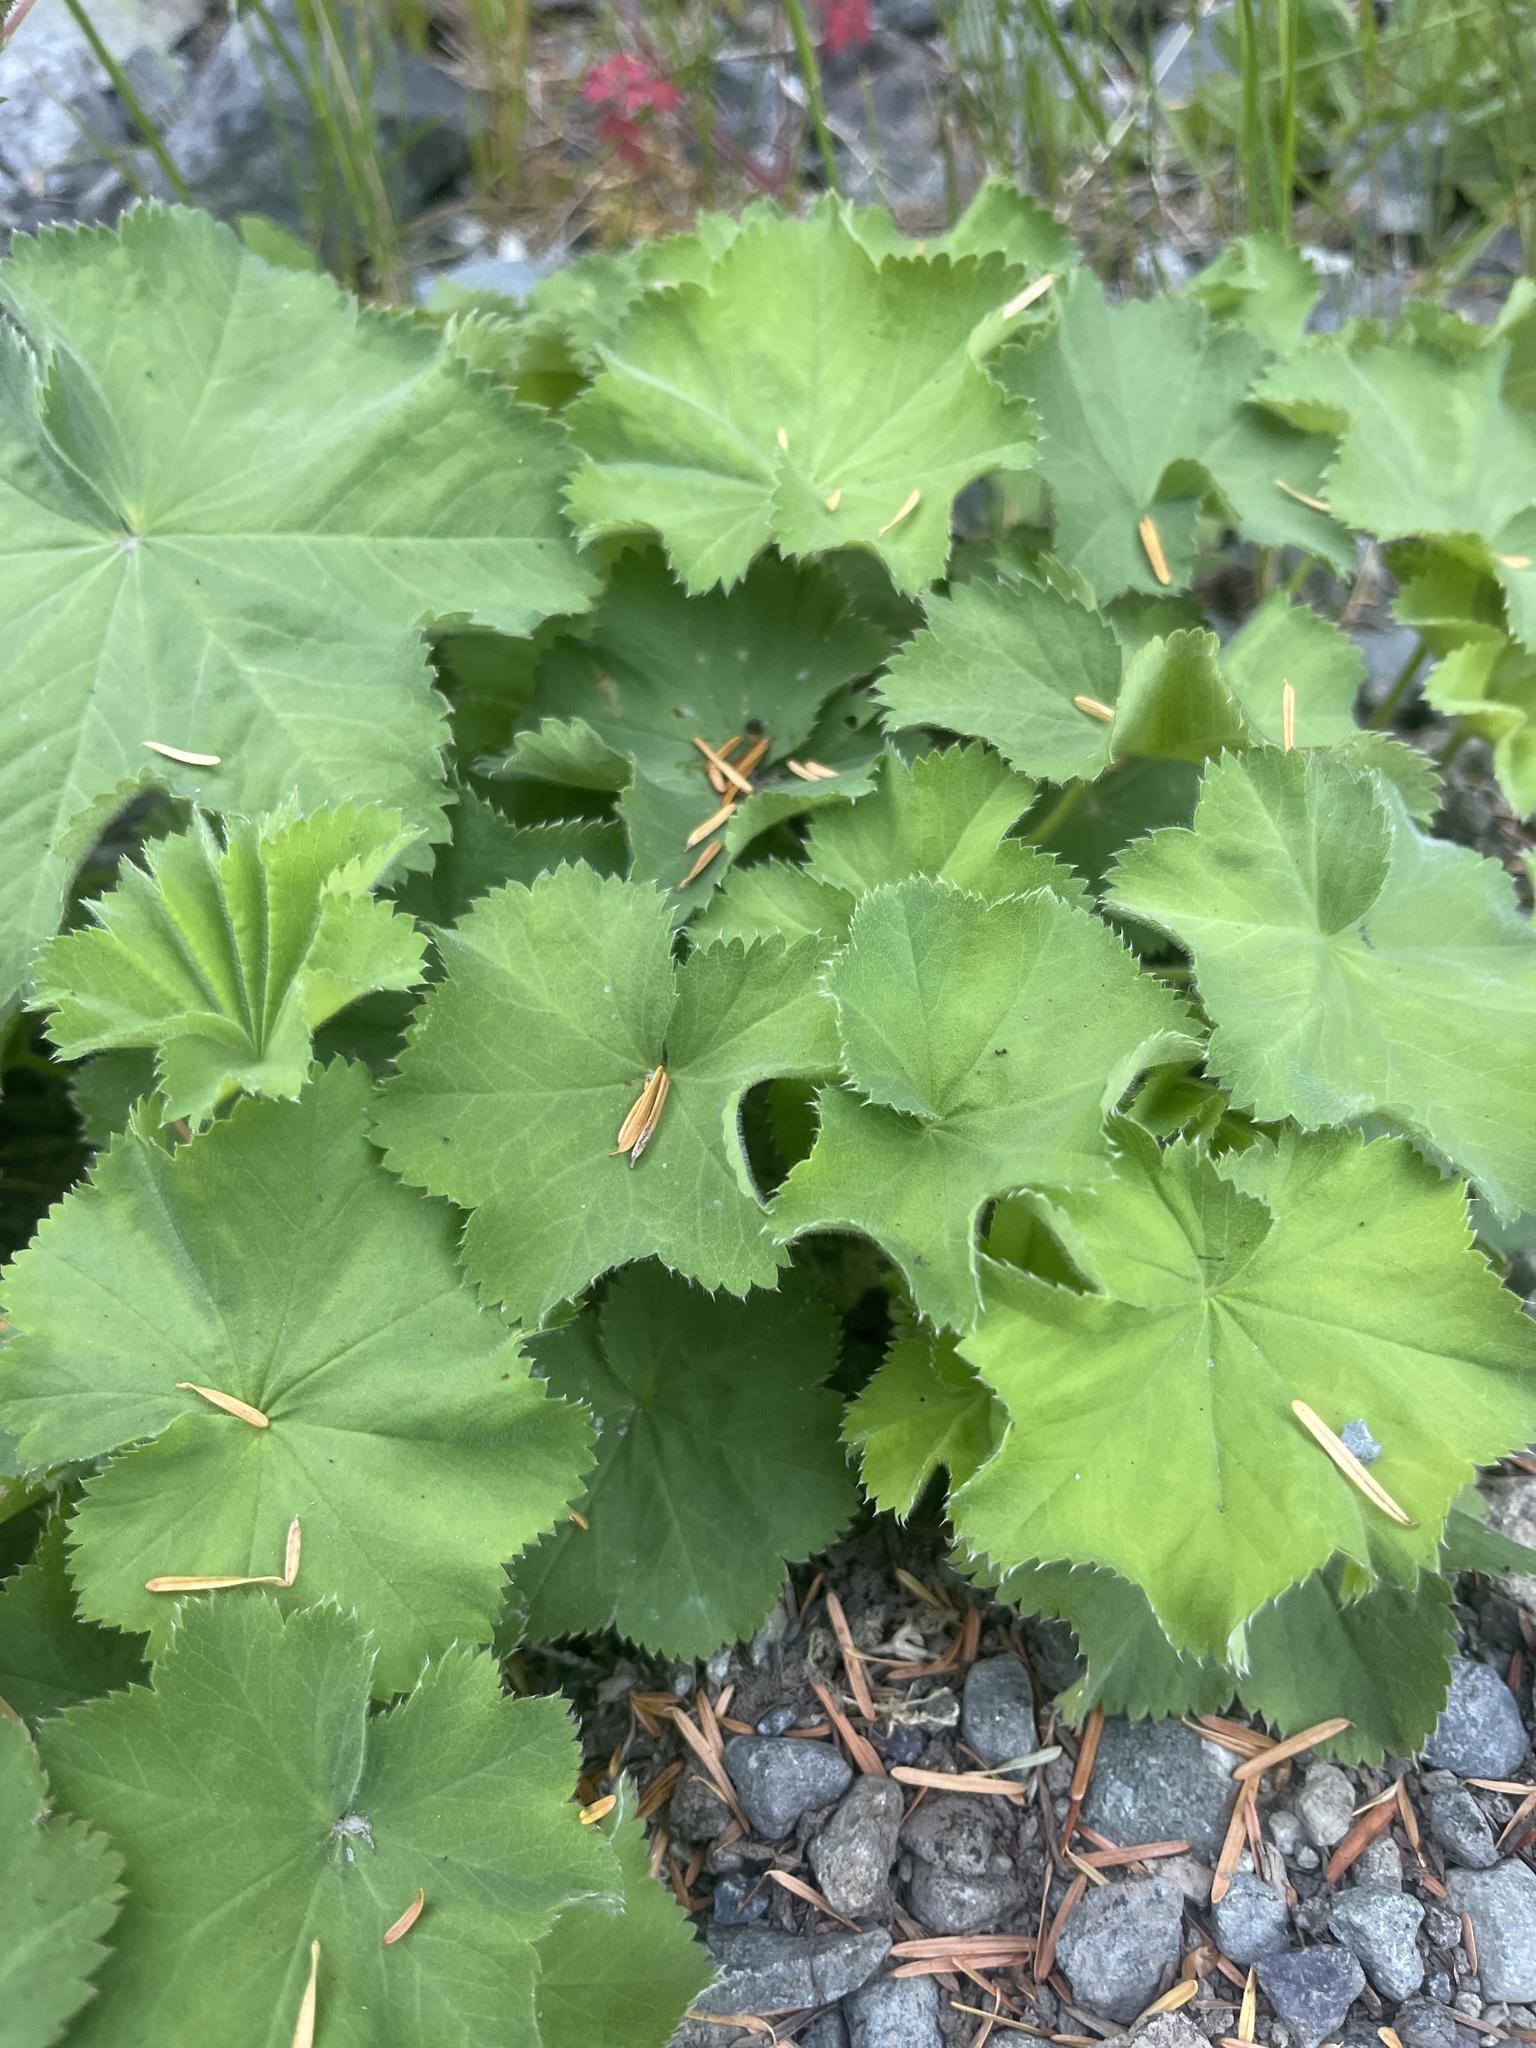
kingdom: Plantae
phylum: Tracheophyta
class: Magnoliopsida
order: Rosales
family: Rosaceae
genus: Alchemilla
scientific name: Alchemilla mollis
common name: Lady's-mantle
